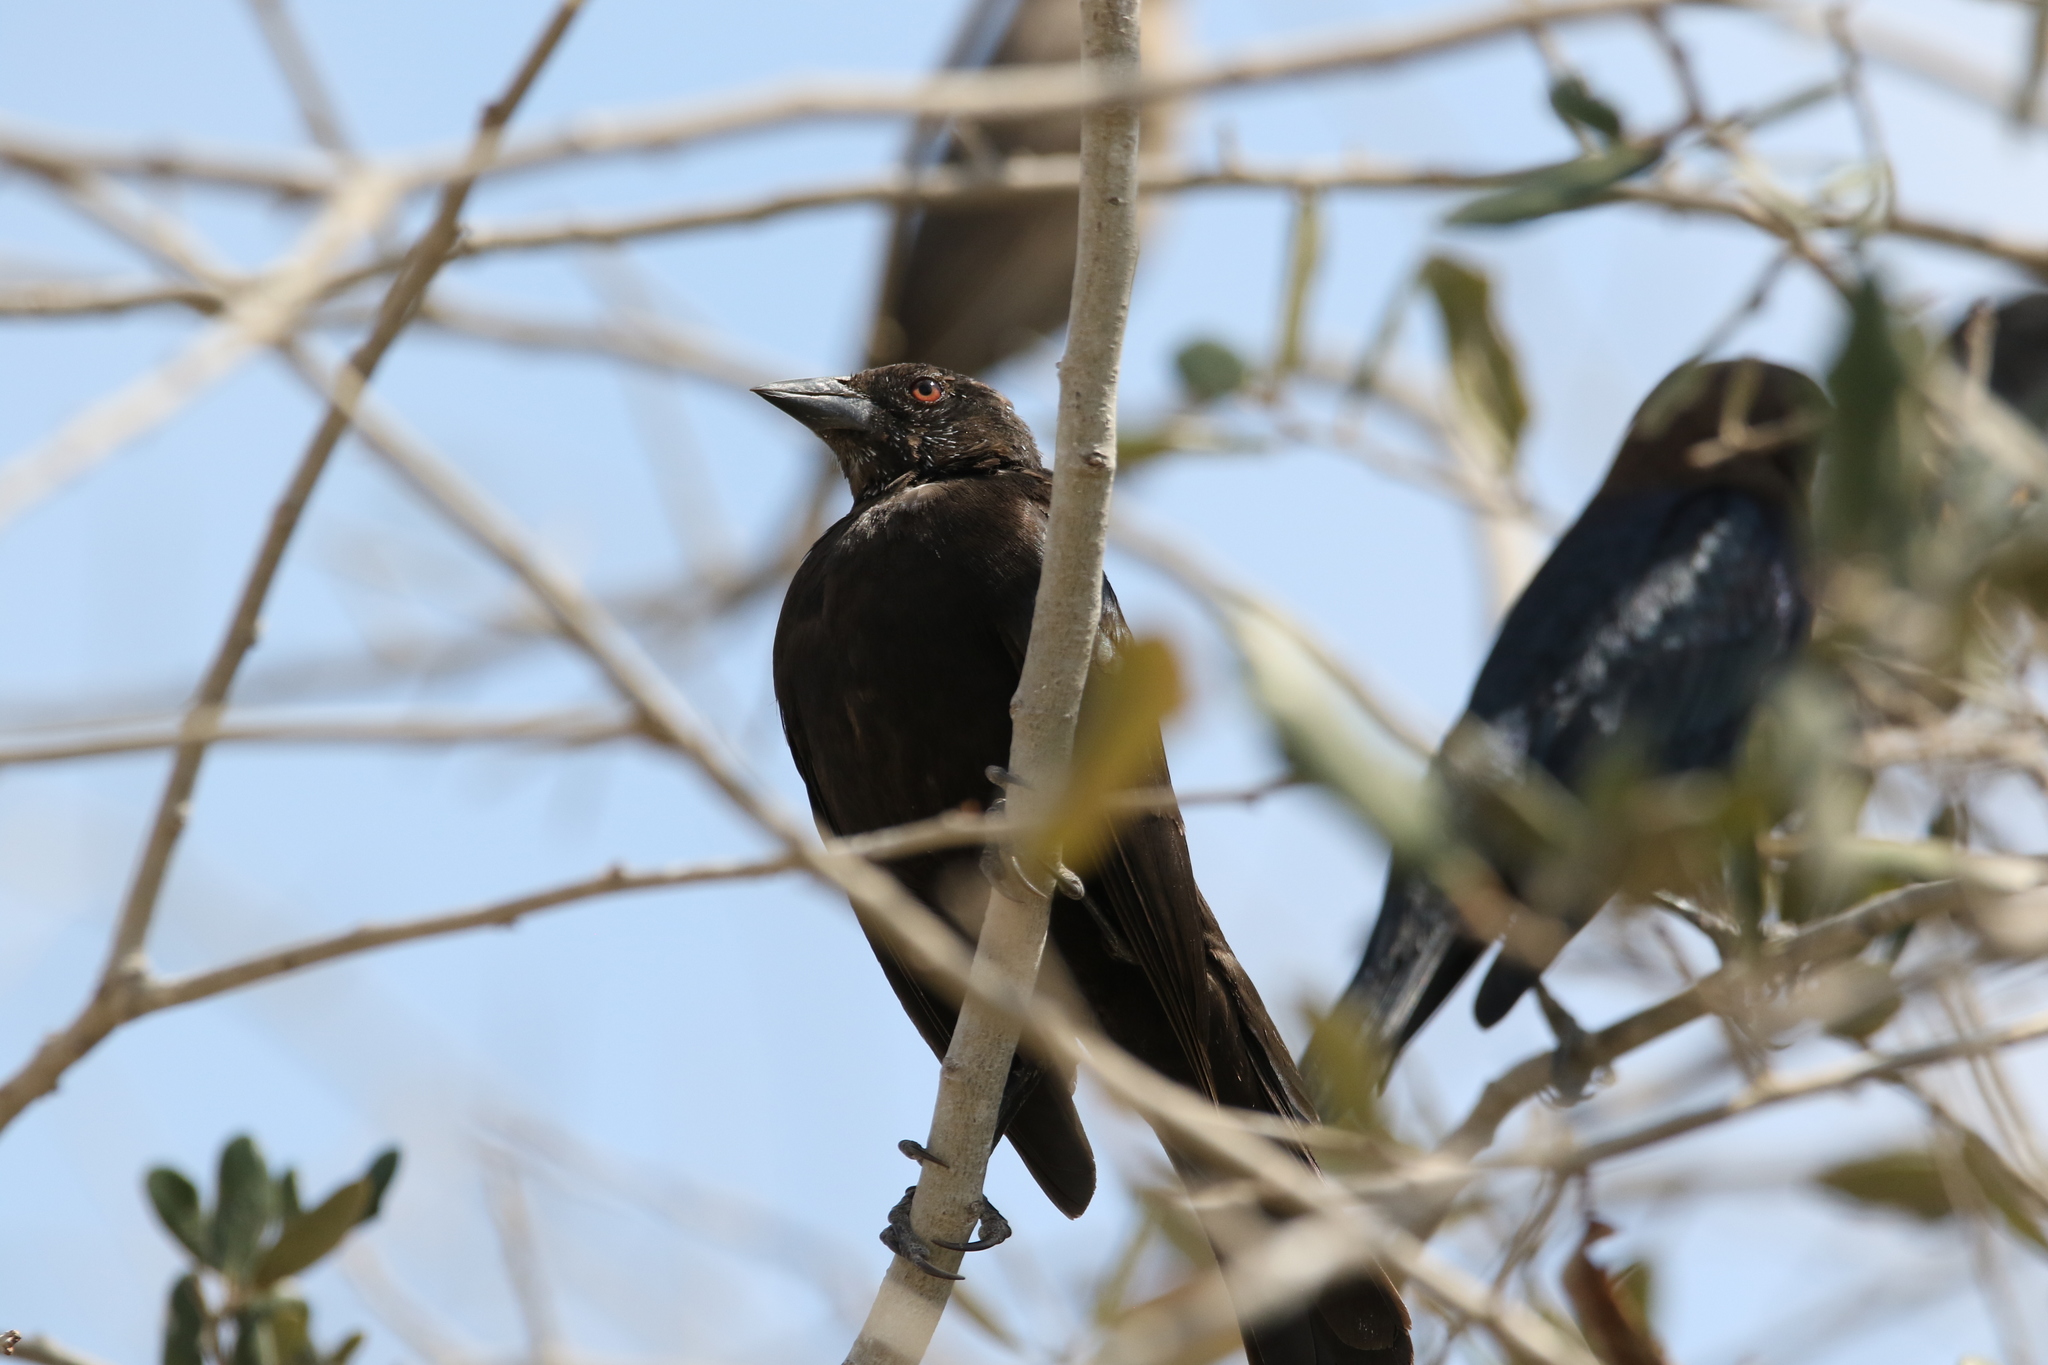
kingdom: Animalia
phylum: Chordata
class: Aves
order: Passeriformes
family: Icteridae
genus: Molothrus
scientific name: Molothrus aeneus
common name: Bronzed cowbird
